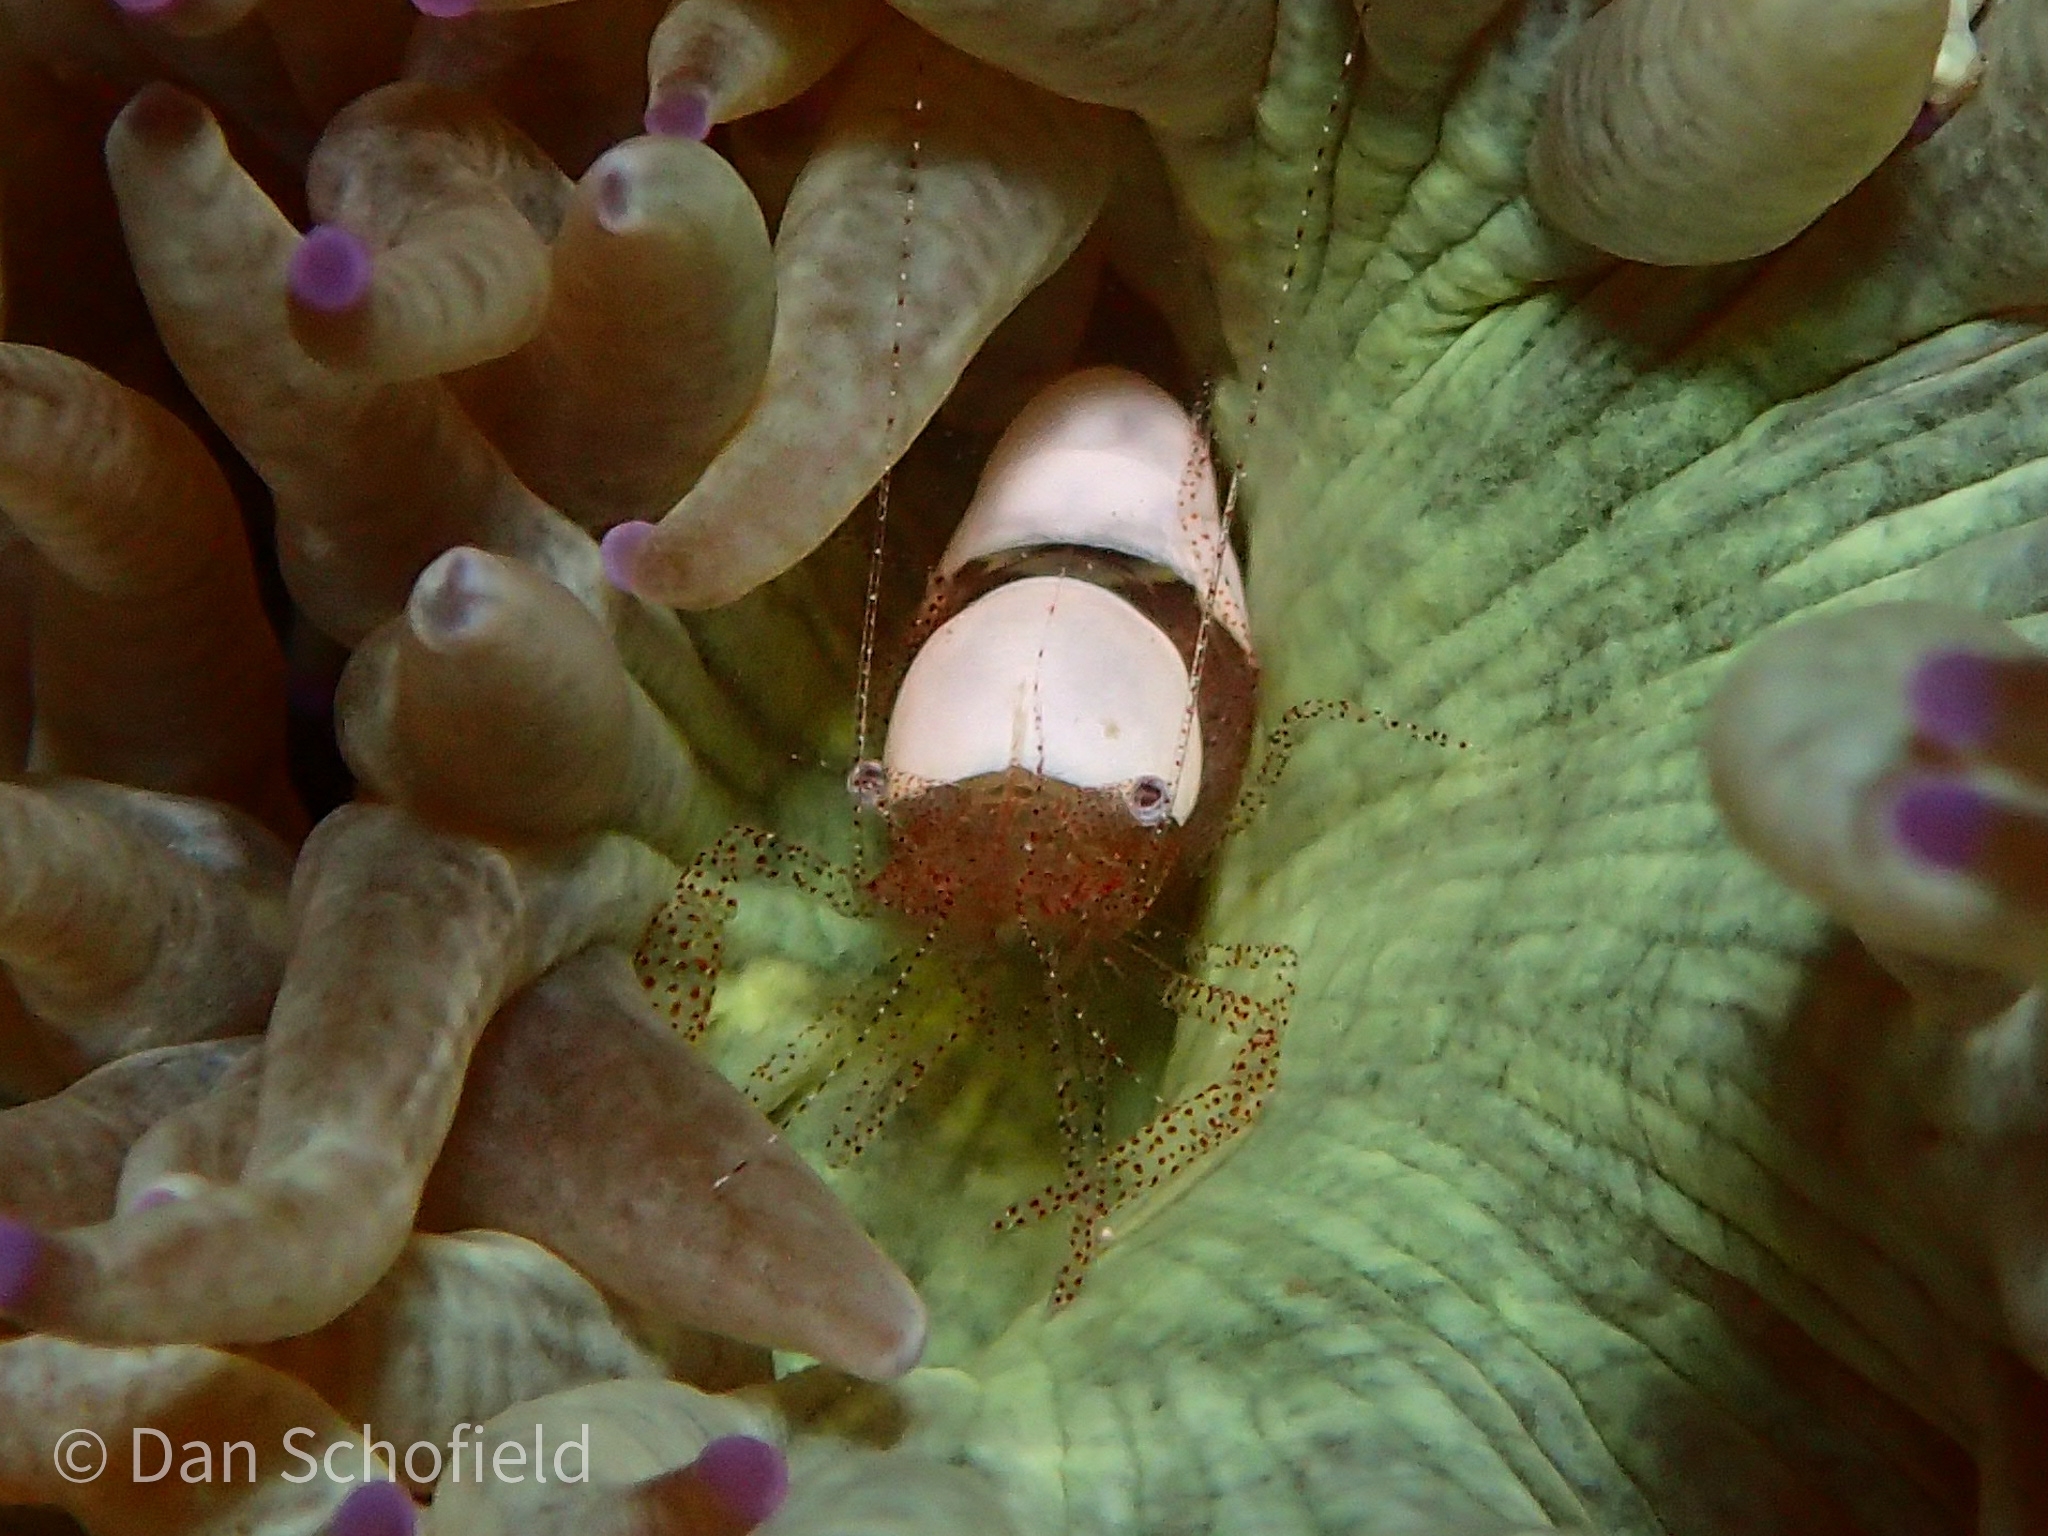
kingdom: Animalia
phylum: Arthropoda
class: Malacostraca
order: Decapoda
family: Palaemonidae
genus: Hamopontonia
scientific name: Hamopontonia fungicola
